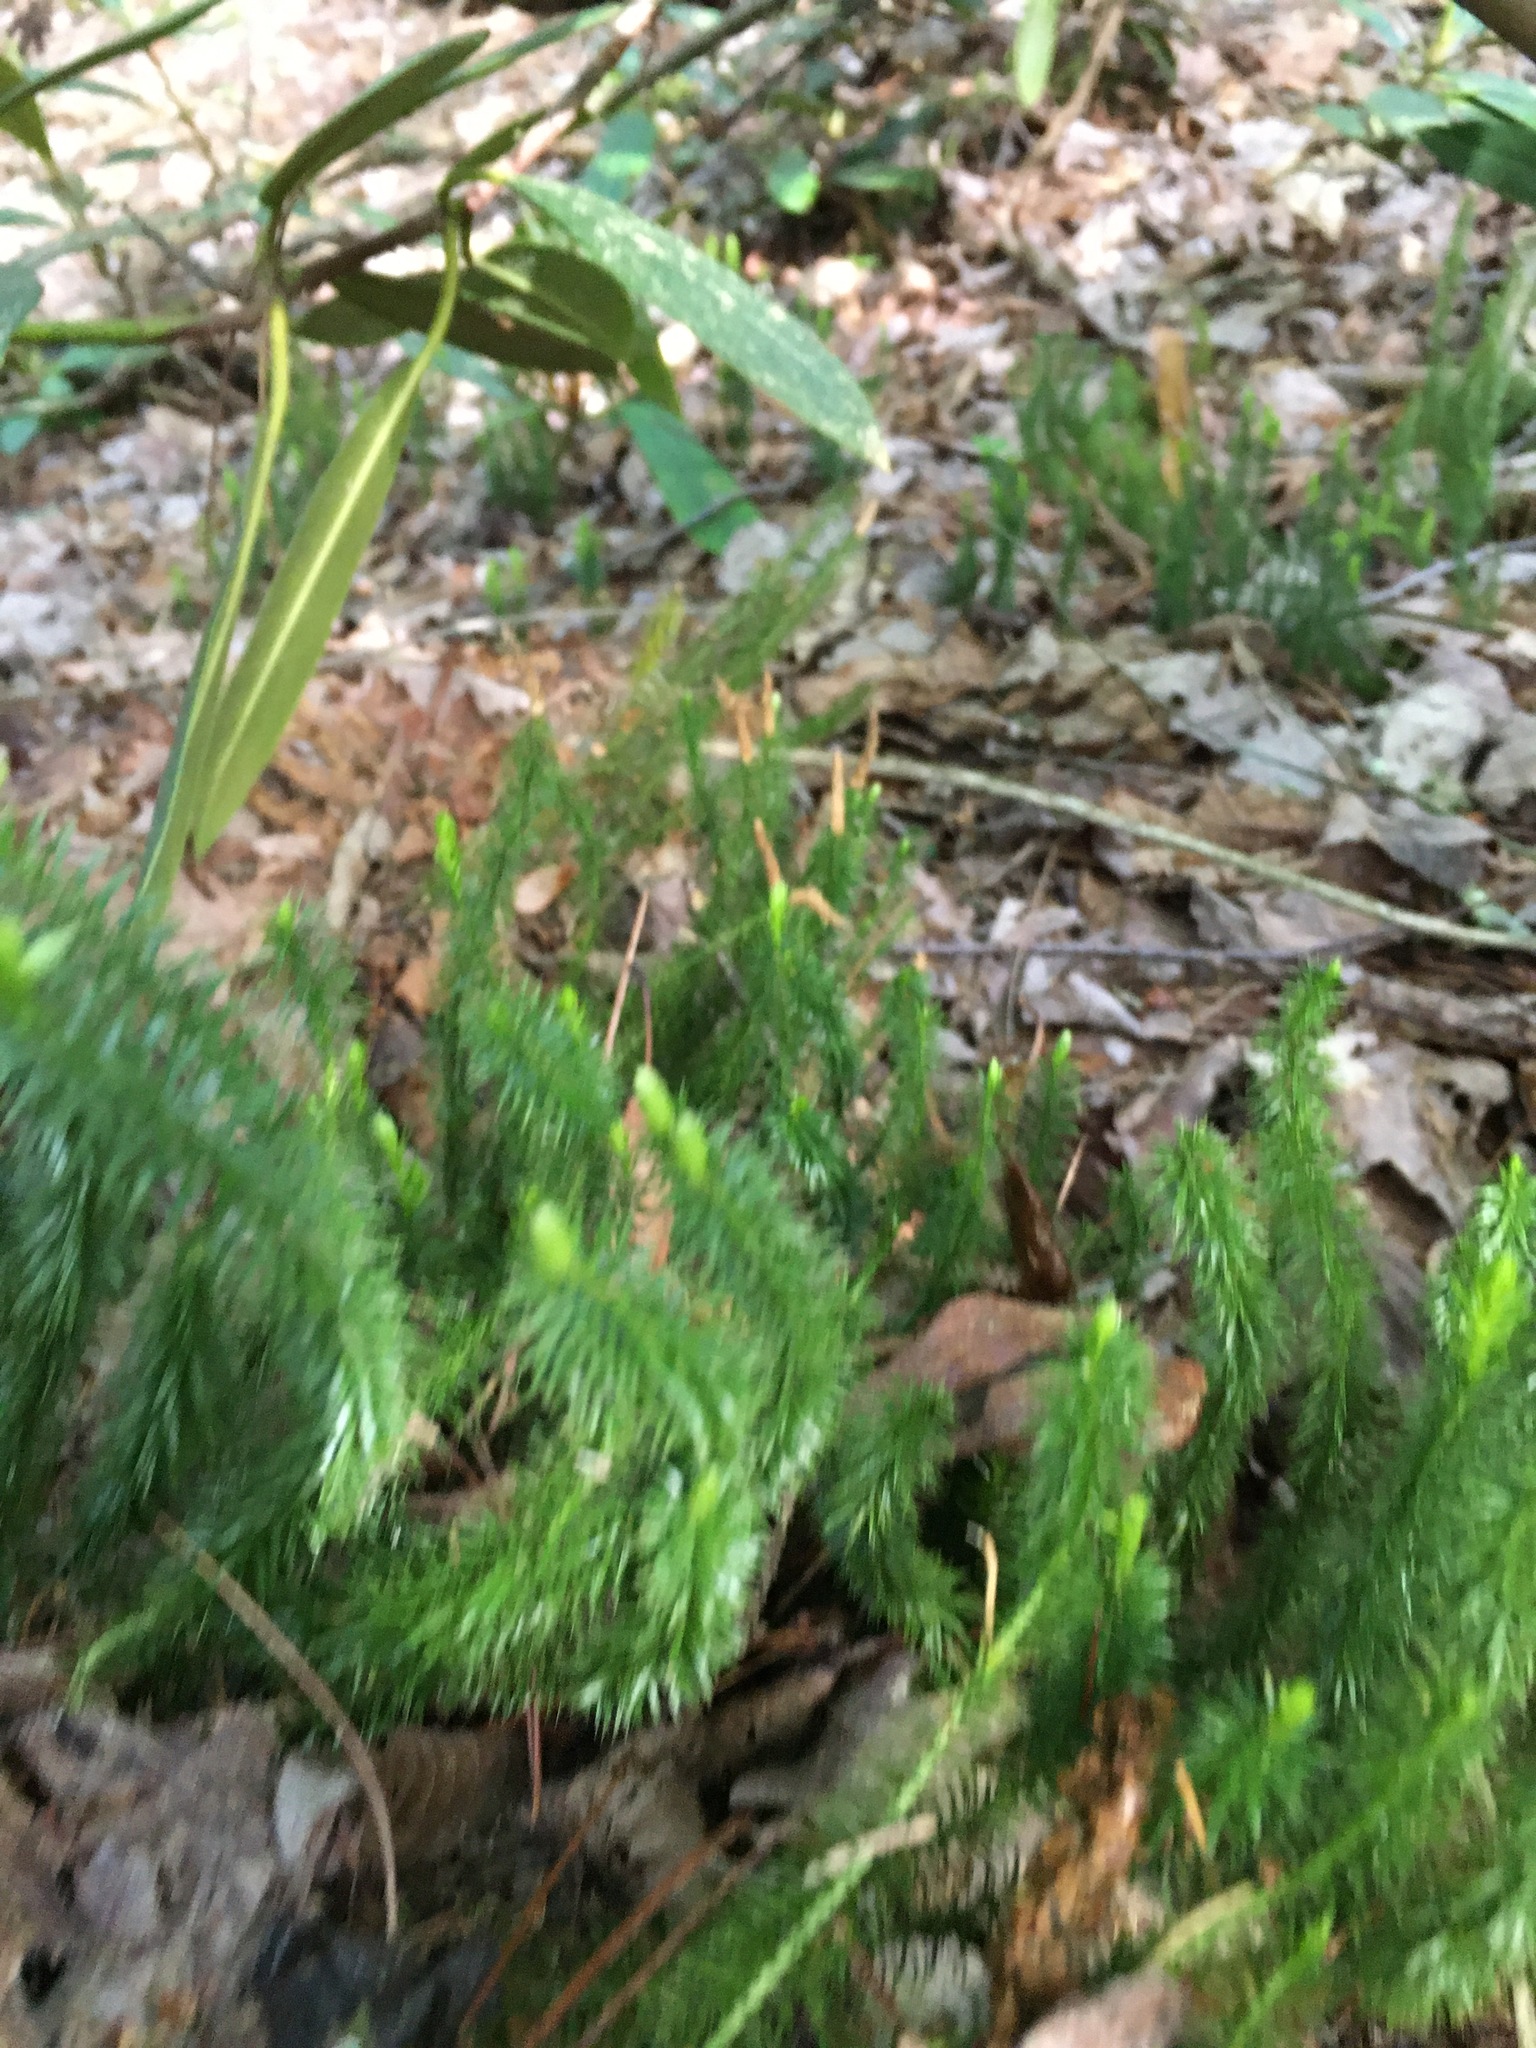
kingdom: Plantae
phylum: Tracheophyta
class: Lycopodiopsida
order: Lycopodiales
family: Lycopodiaceae
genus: Spinulum
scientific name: Spinulum annotinum
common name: Interrupted club-moss
